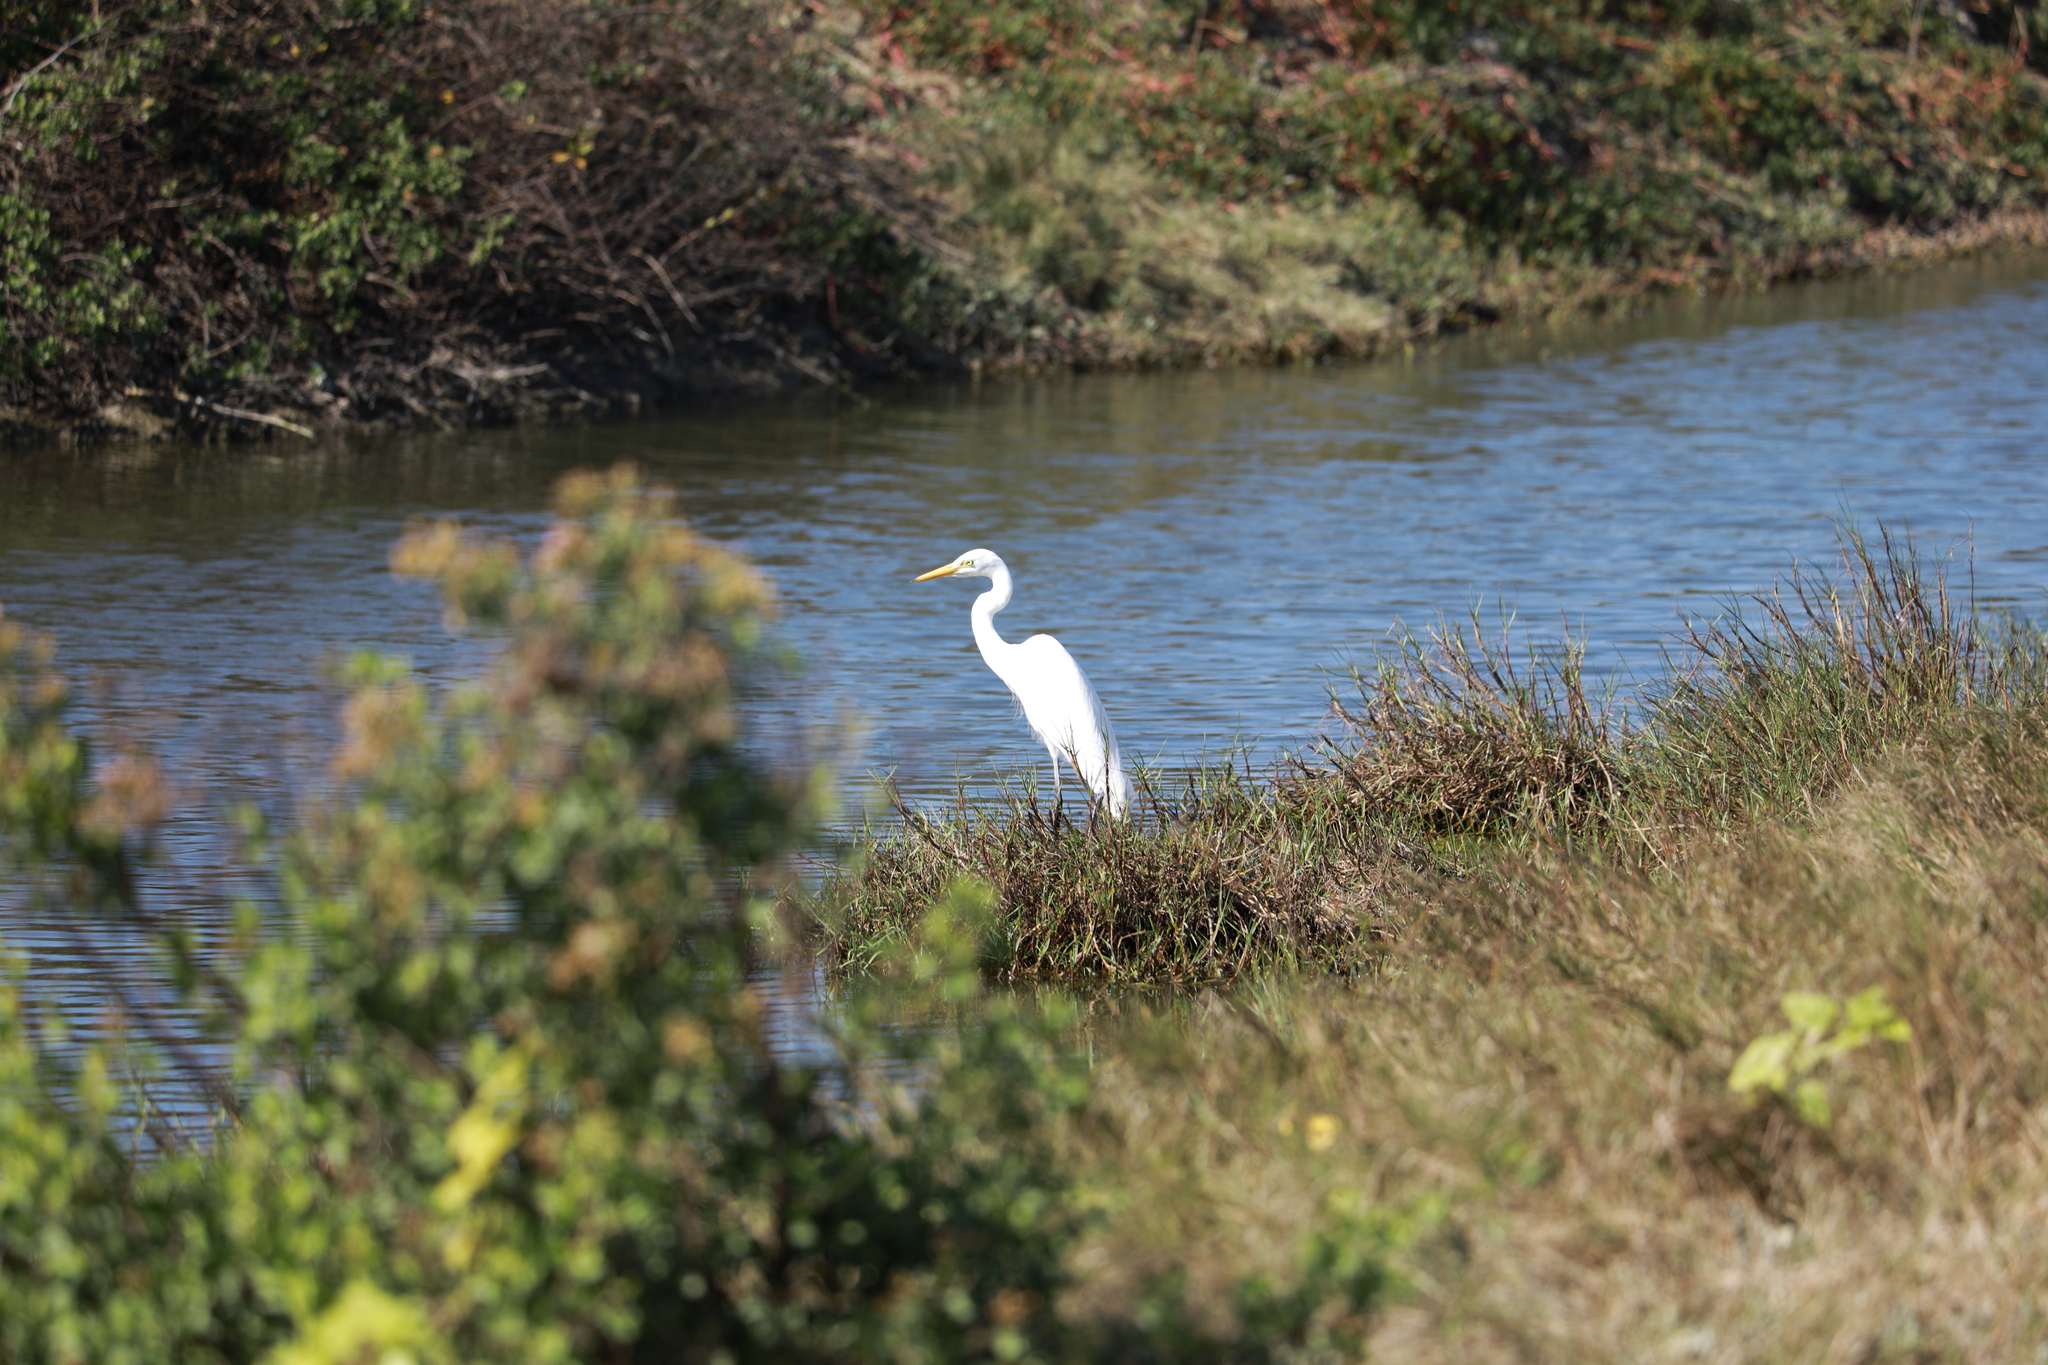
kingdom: Animalia
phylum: Chordata
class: Aves
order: Pelecaniformes
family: Ardeidae
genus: Ardea
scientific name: Ardea alba
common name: Great egret
